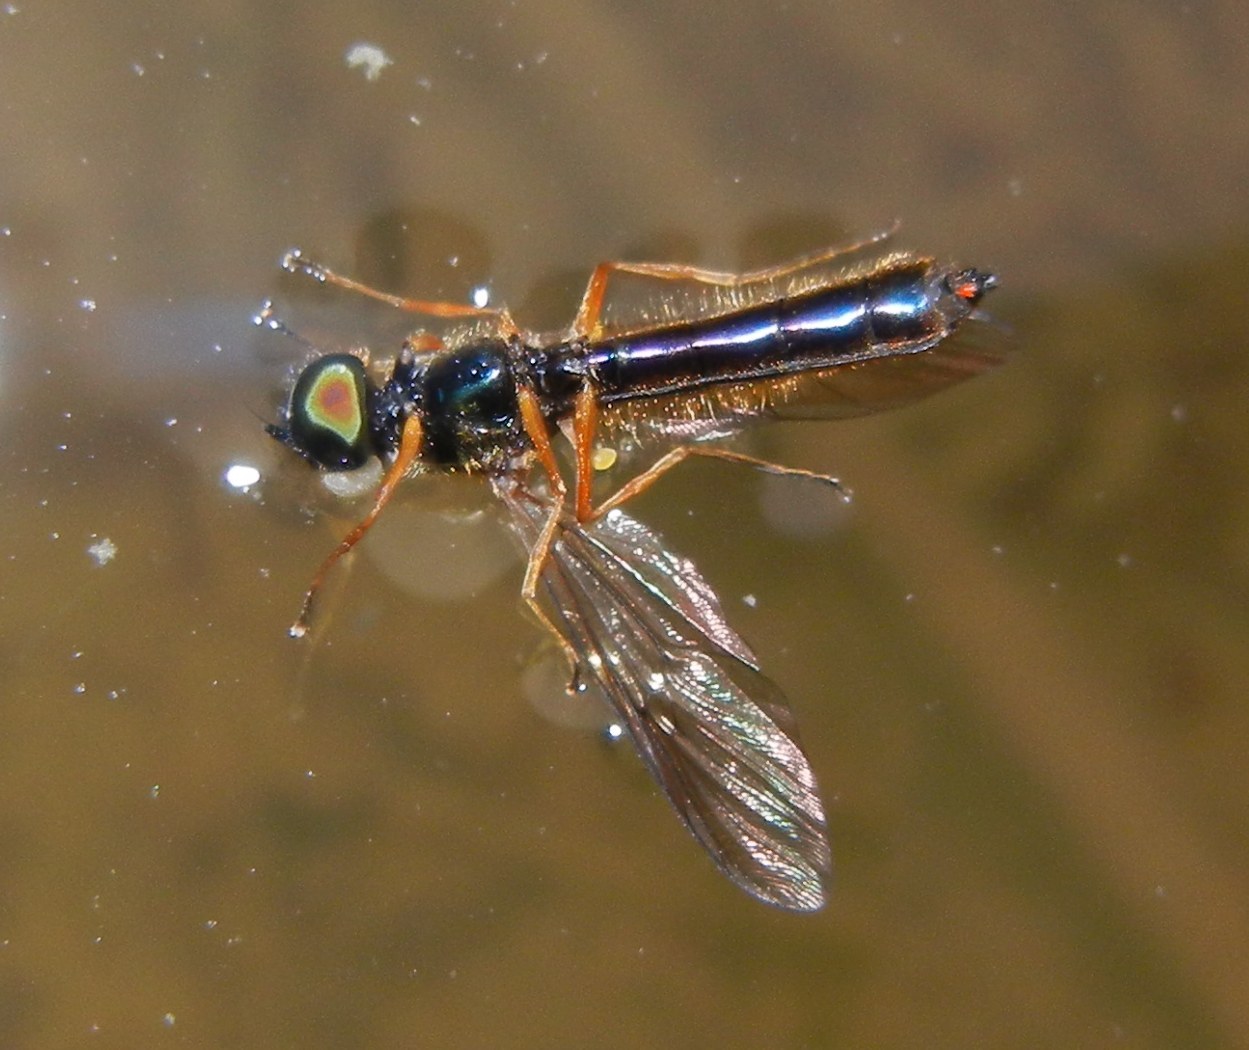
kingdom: Animalia
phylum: Arthropoda
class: Insecta
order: Diptera
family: Stratiomyidae
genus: Sargus
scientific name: Sargus bipunctatus
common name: Twin-spot centurion
